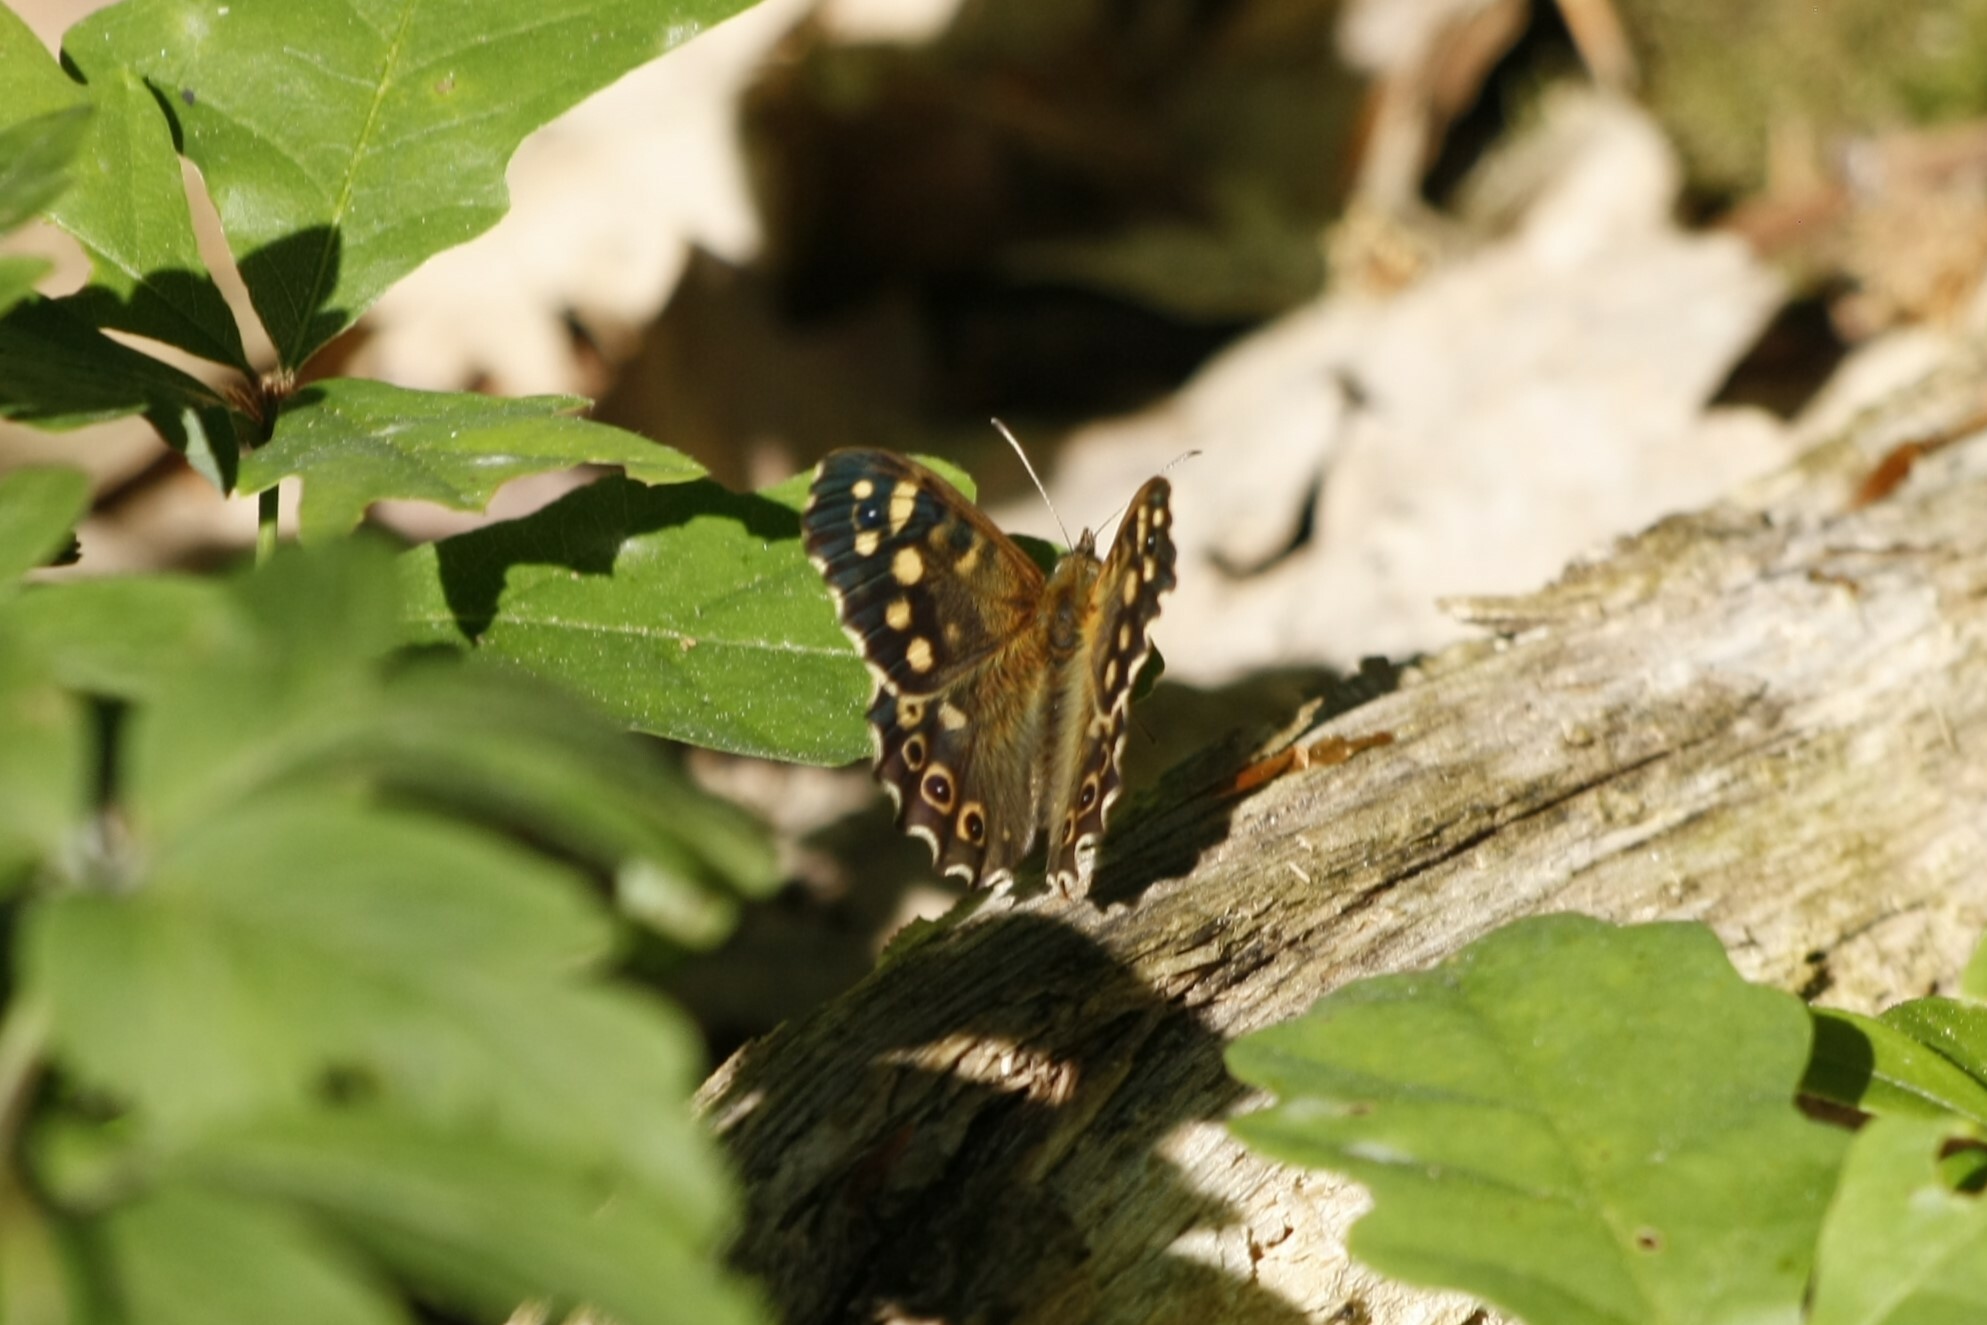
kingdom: Animalia
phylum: Arthropoda
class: Insecta
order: Lepidoptera
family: Nymphalidae
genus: Pararge
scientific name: Pararge aegeria
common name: Speckled wood
